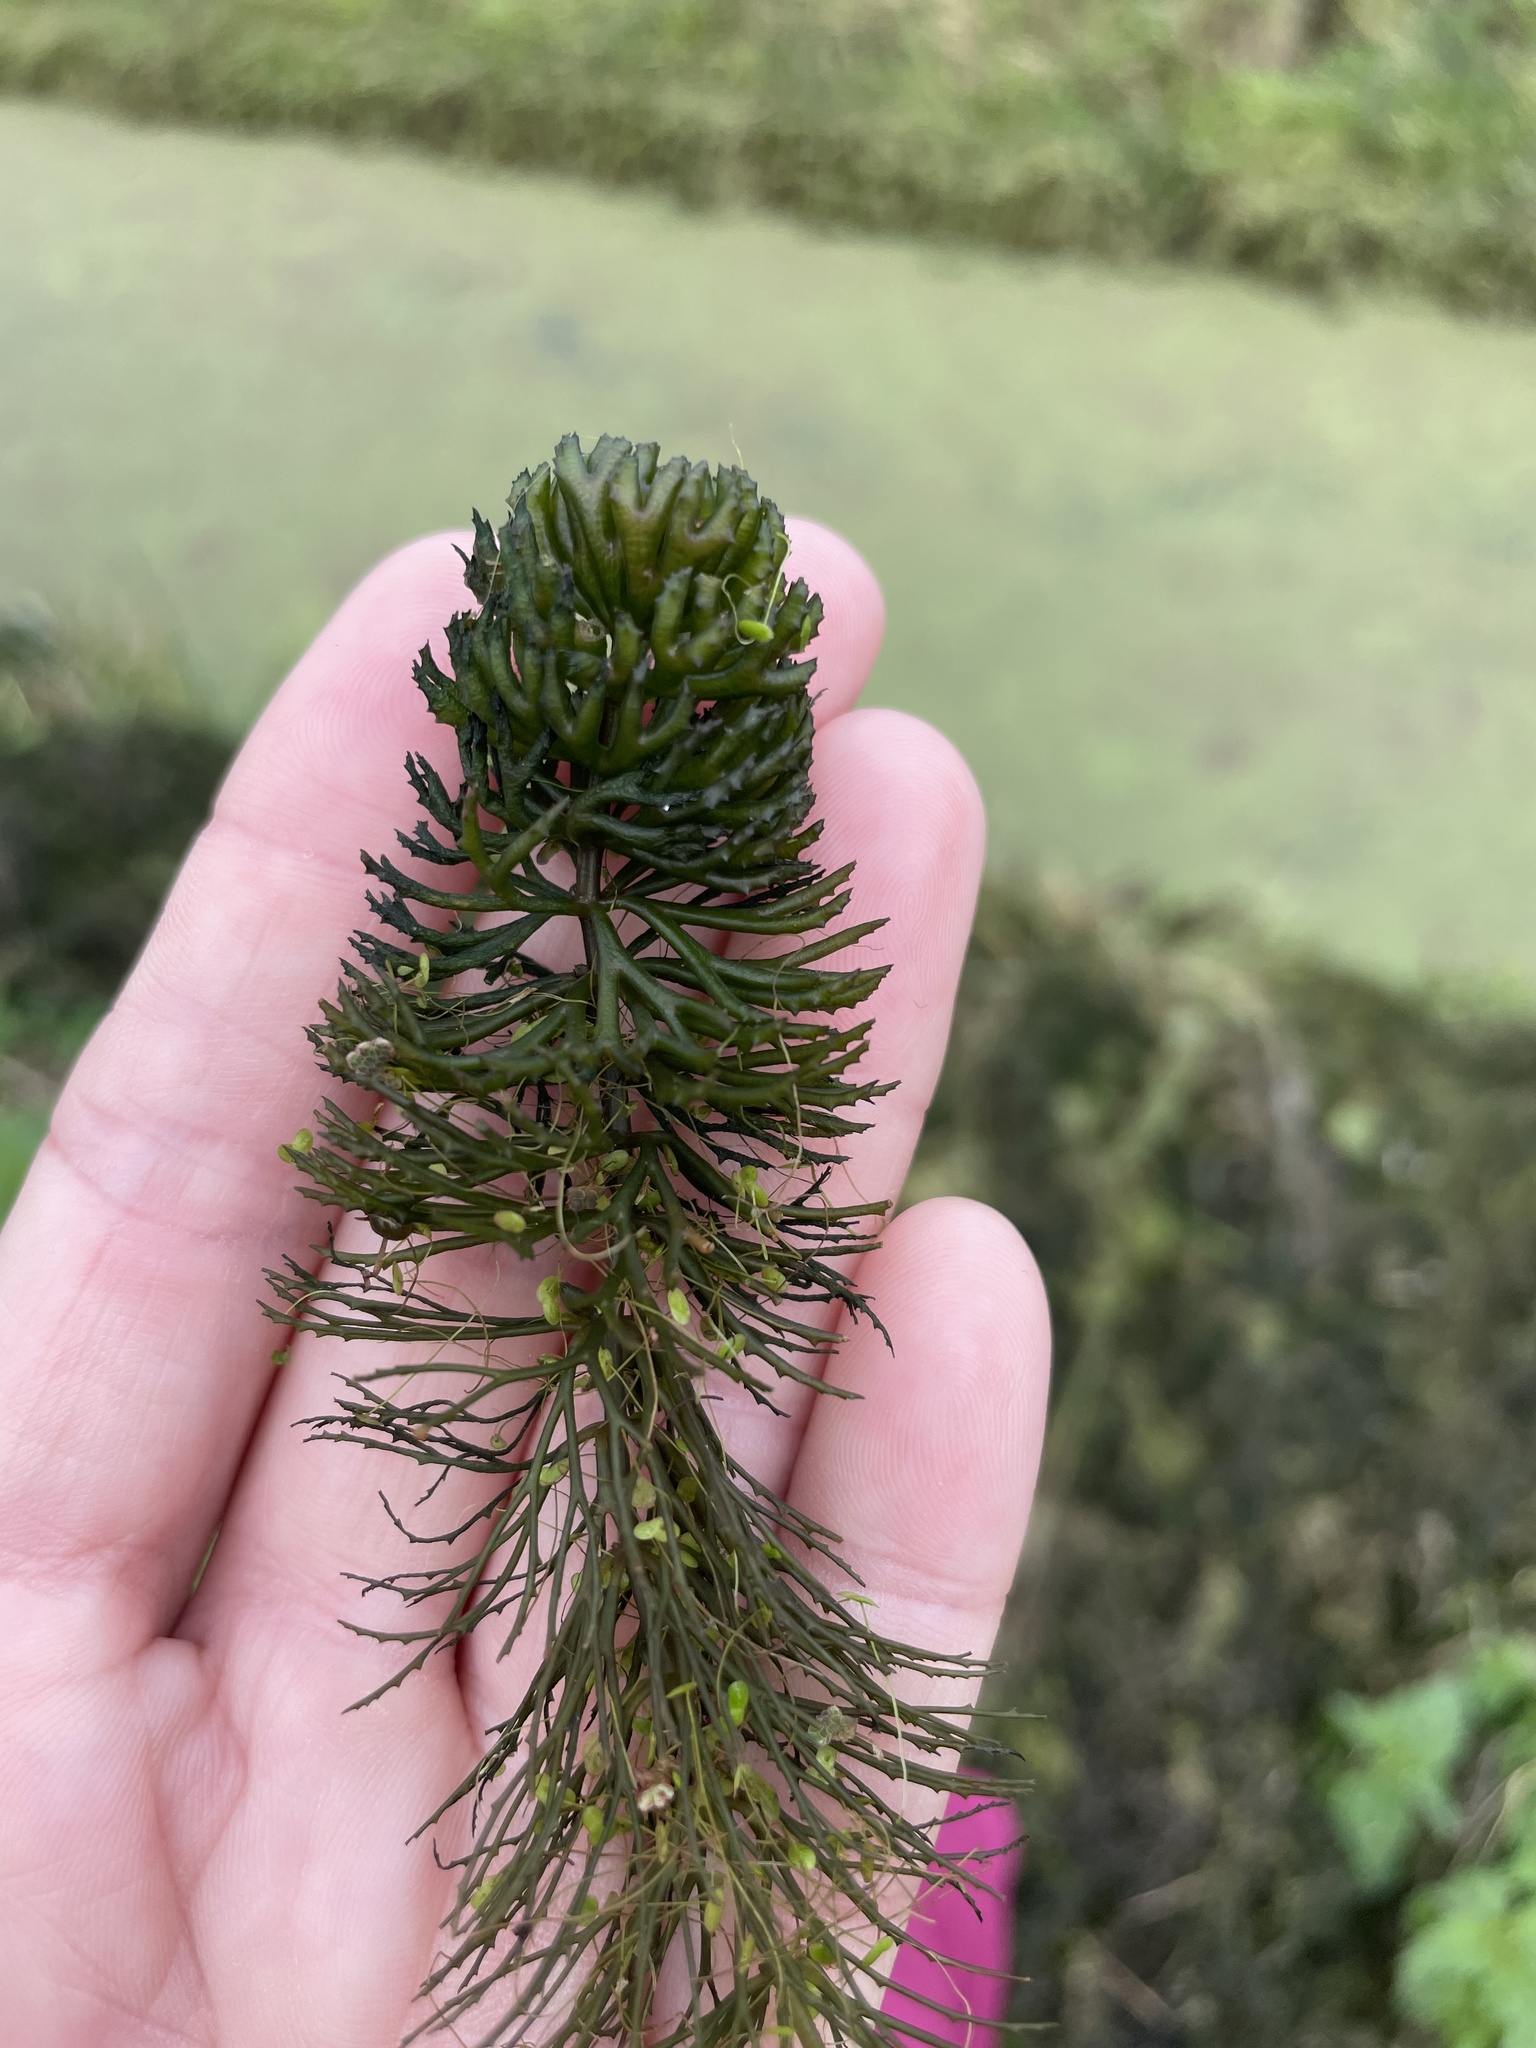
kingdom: Plantae
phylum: Tracheophyta
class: Magnoliopsida
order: Ceratophyllales
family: Ceratophyllaceae
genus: Ceratophyllum
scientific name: Ceratophyllum demersum
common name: Rigid hornwort
